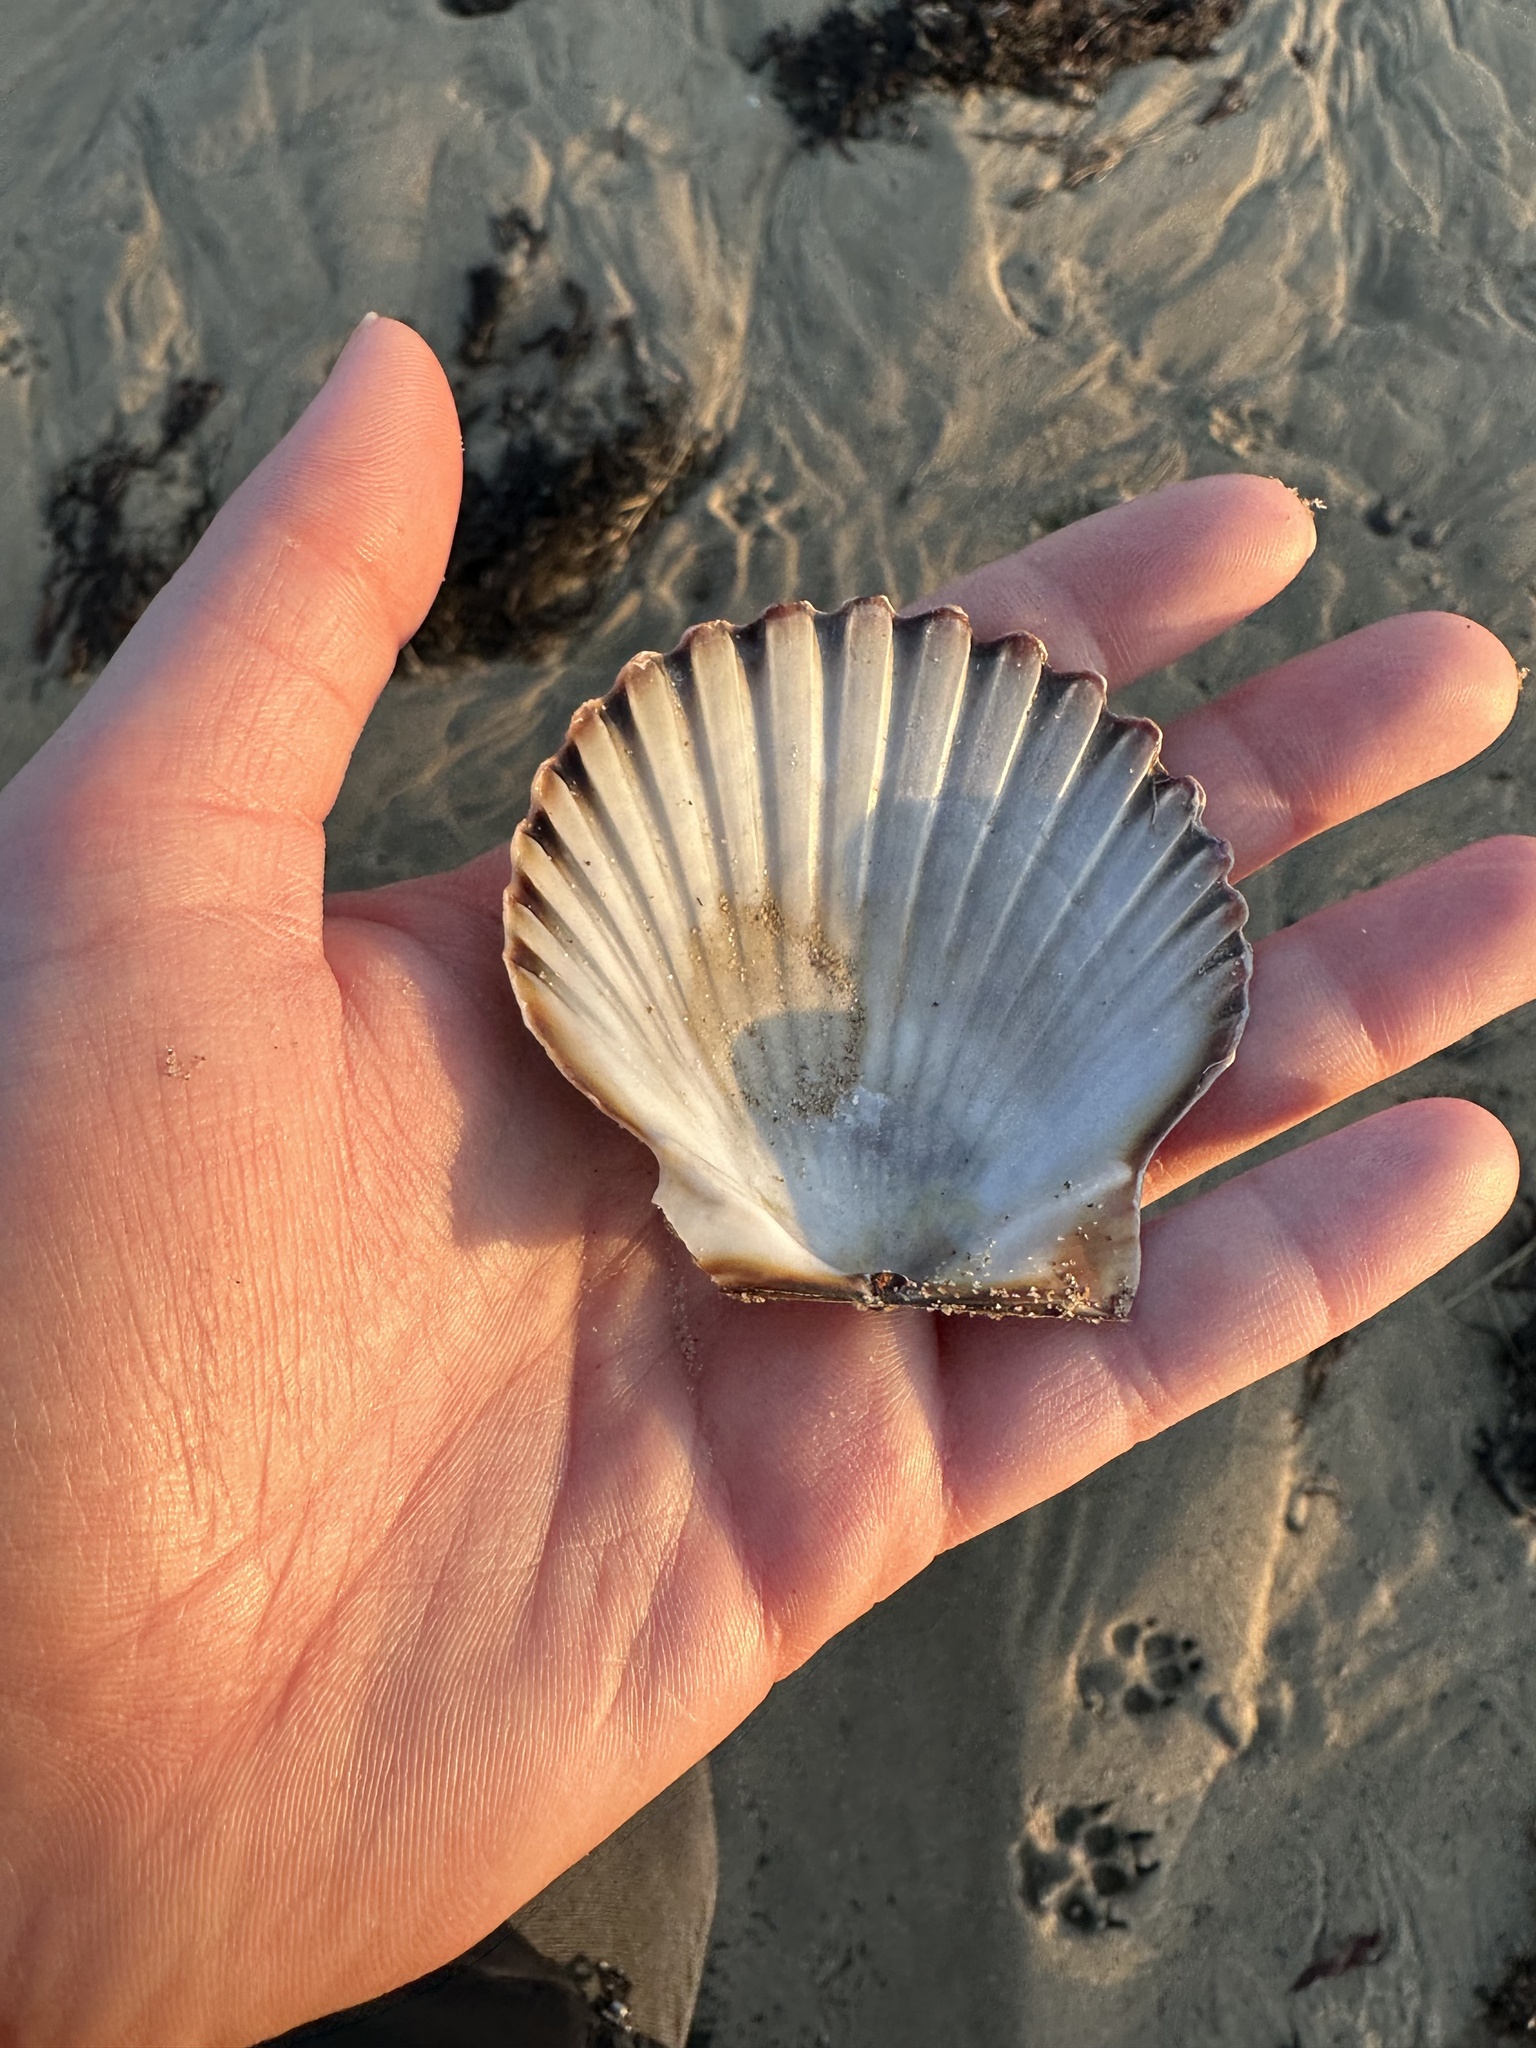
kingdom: Animalia
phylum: Mollusca
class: Bivalvia
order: Pectinida
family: Pectinidae
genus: Argopecten
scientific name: Argopecten irradians
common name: Atlantic bay scallop
